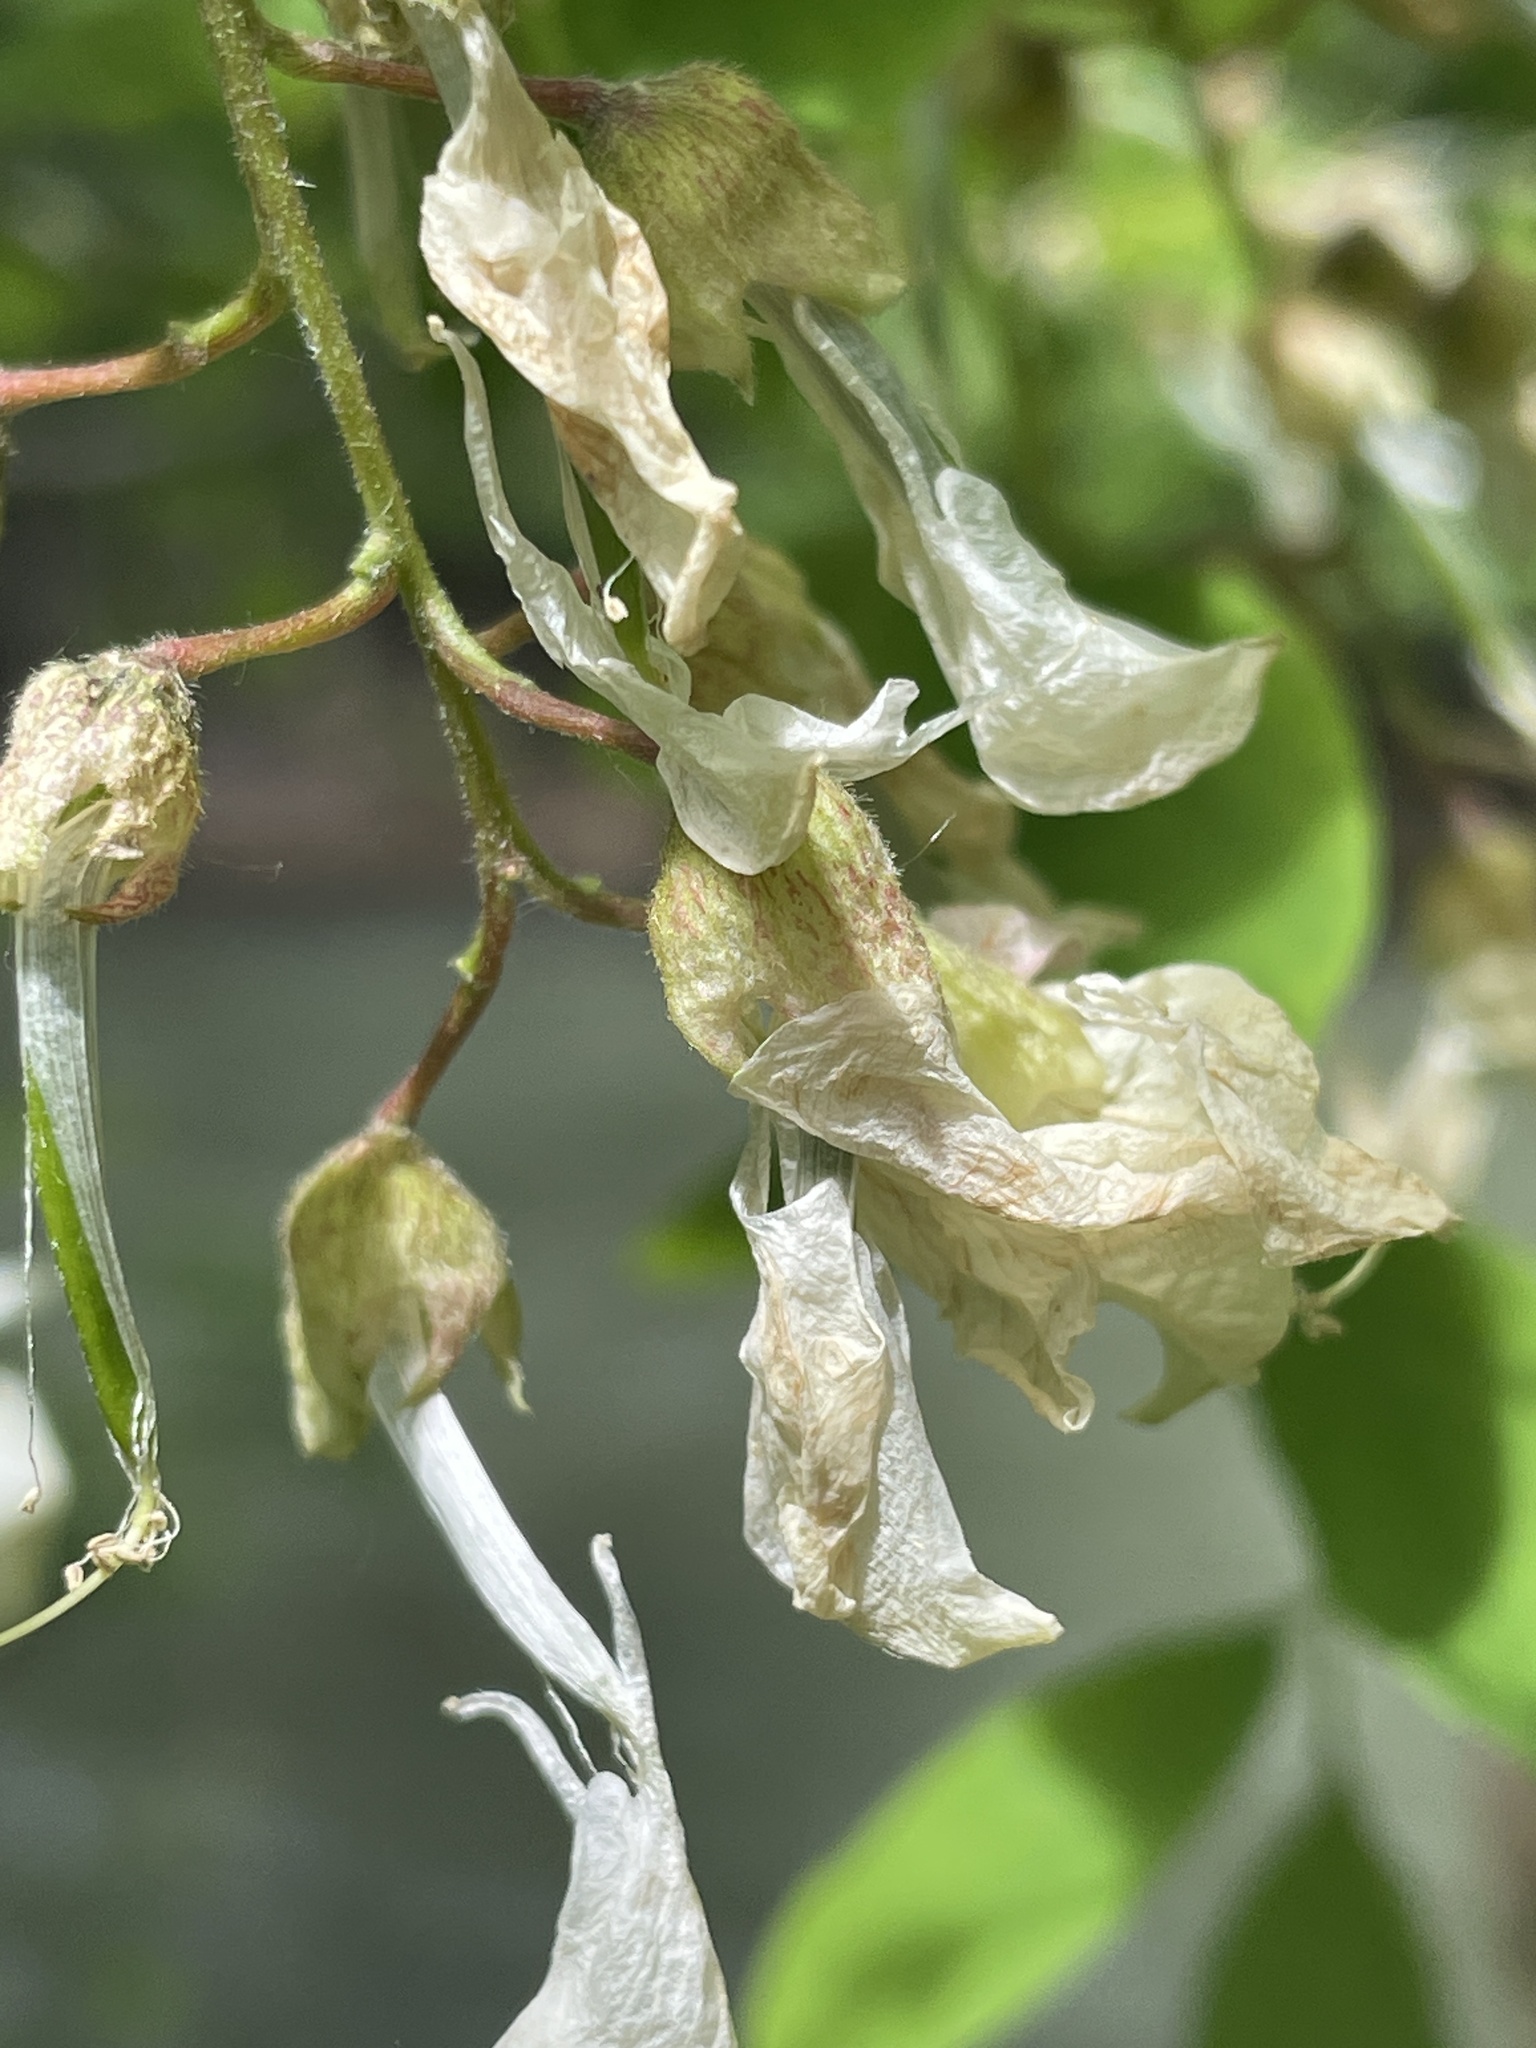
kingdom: Plantae
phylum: Tracheophyta
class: Magnoliopsida
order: Fabales
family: Fabaceae
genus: Robinia
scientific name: Robinia pseudoacacia
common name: Black locust
